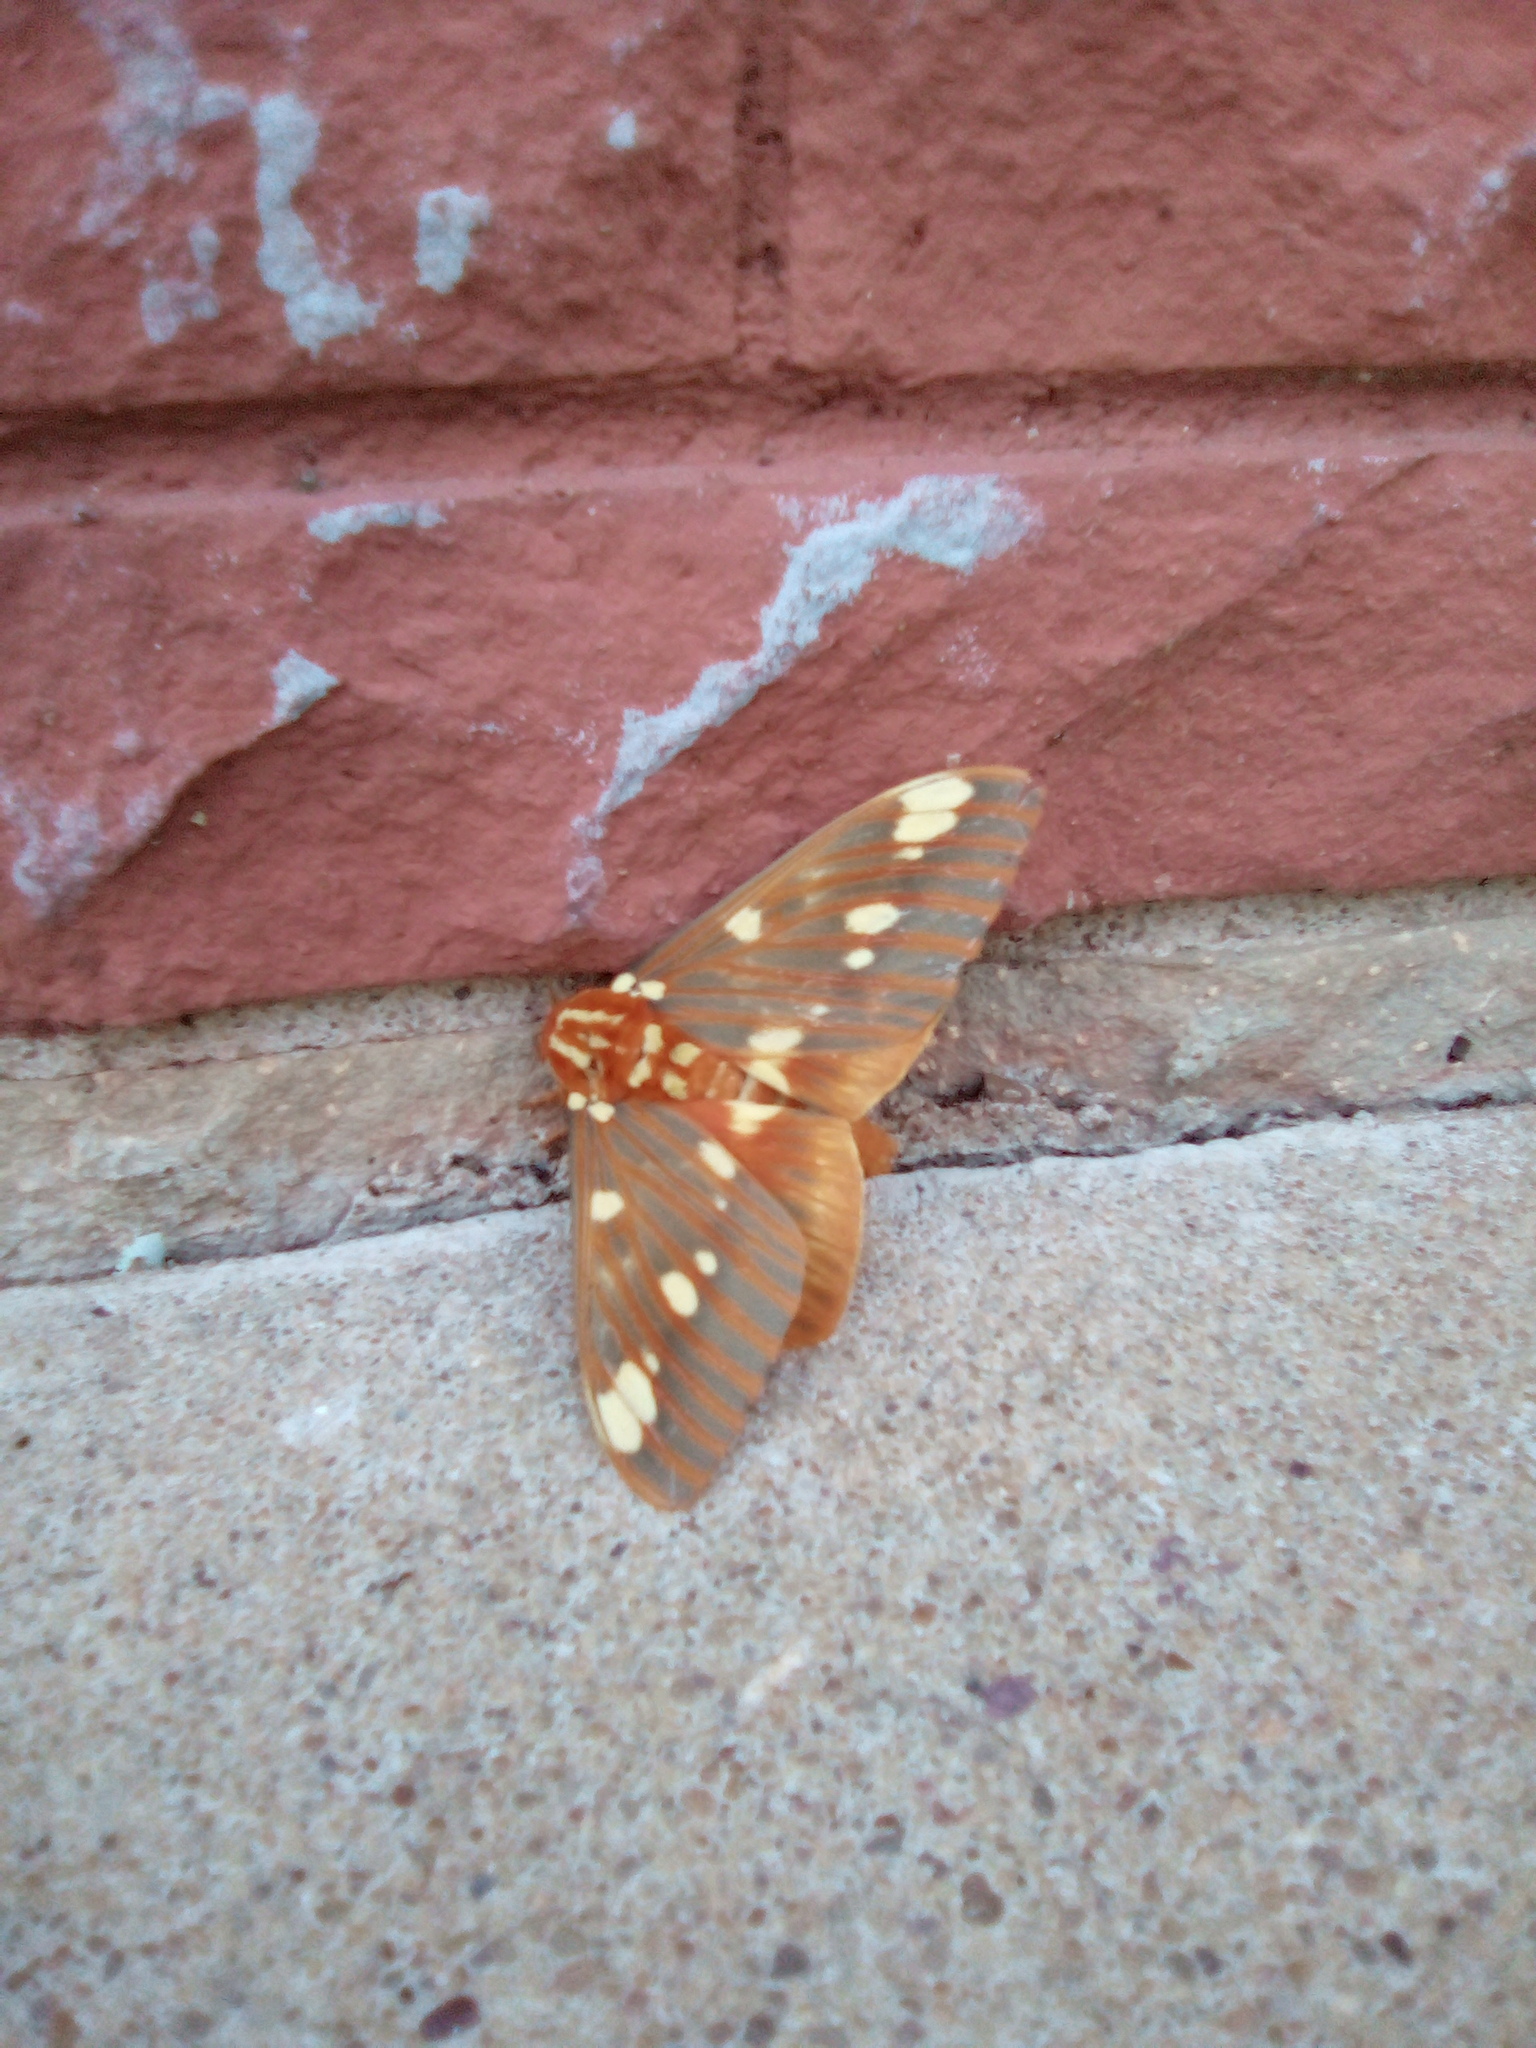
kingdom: Animalia
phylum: Arthropoda
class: Insecta
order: Lepidoptera
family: Saturniidae
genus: Citheronia
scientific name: Citheronia regalis
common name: Hickory horned devil
